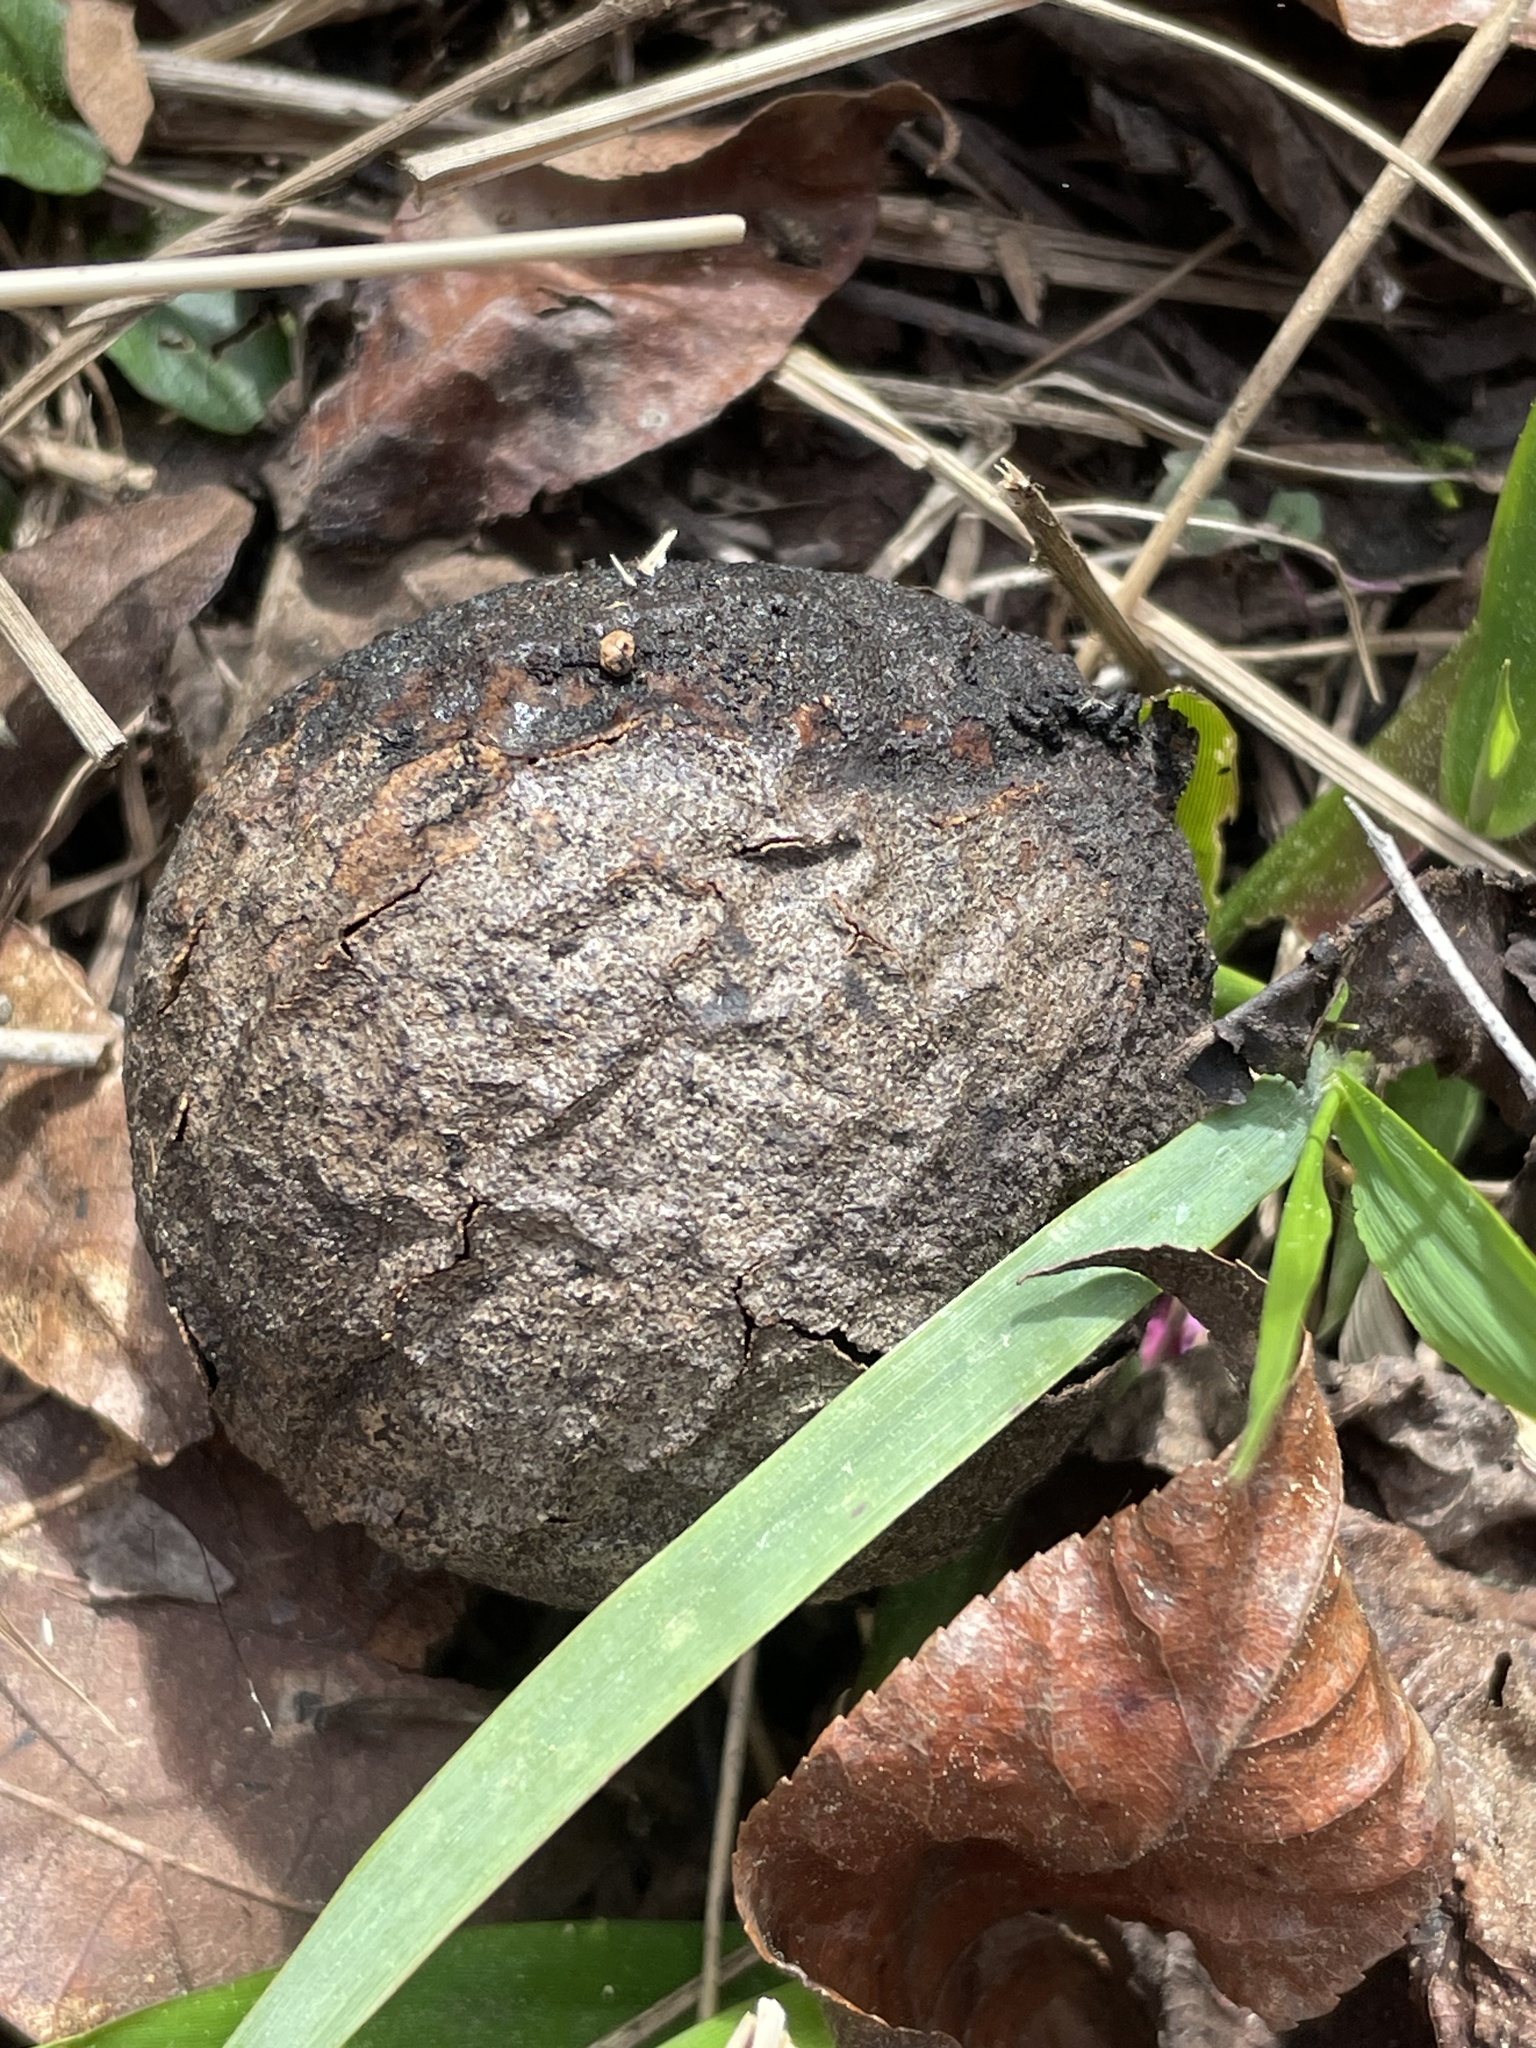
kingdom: Plantae
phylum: Tracheophyta
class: Magnoliopsida
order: Fagales
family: Juglandaceae
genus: Juglans
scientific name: Juglans nigra
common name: Black walnut
